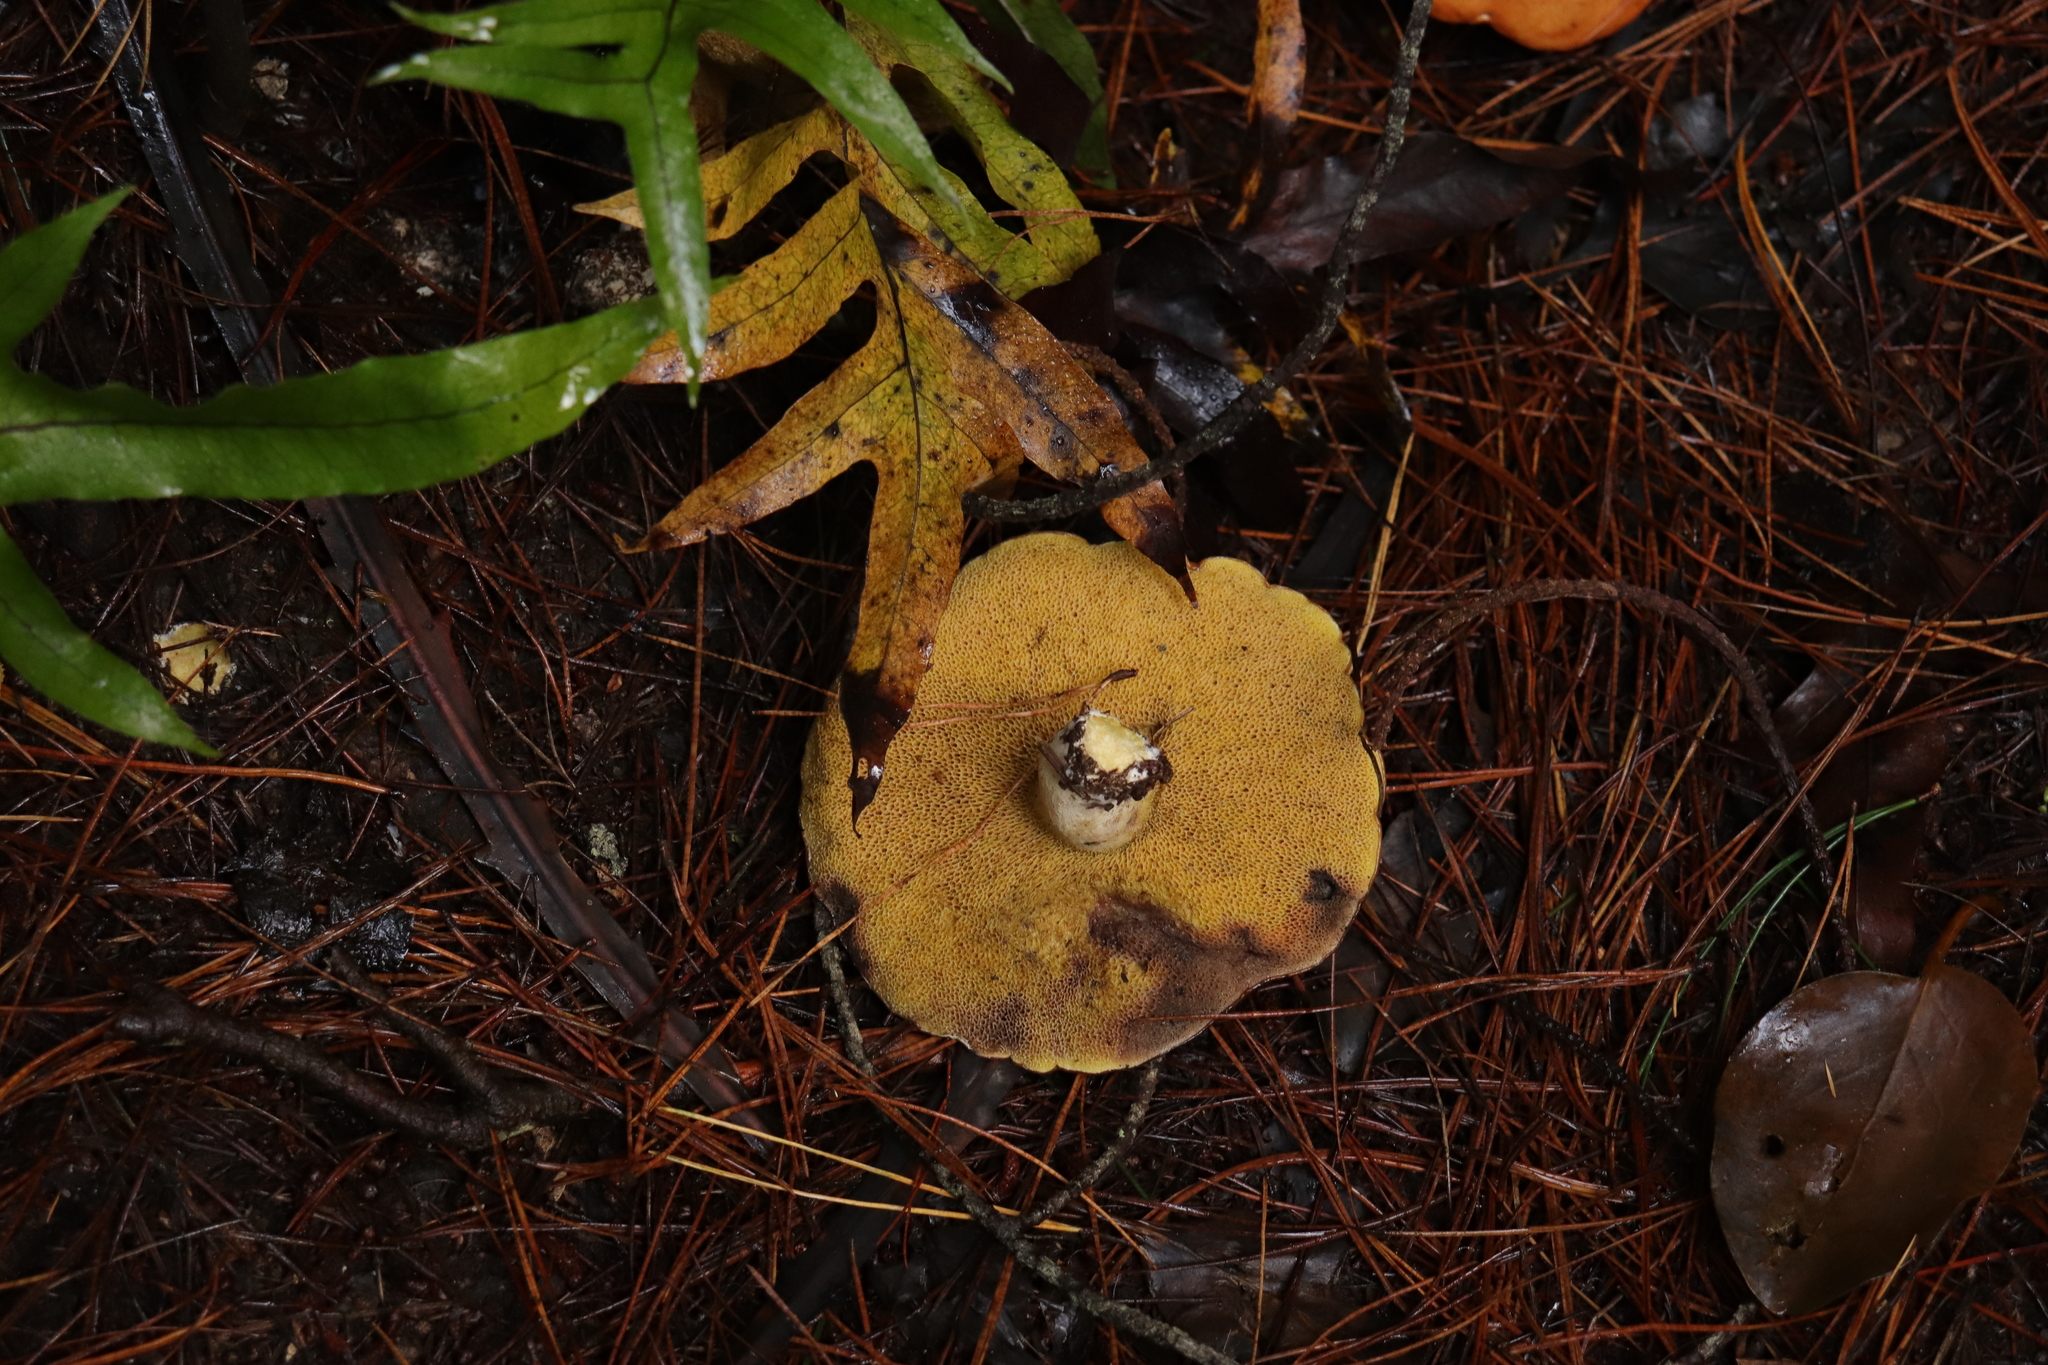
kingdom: Fungi
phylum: Basidiomycota
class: Agaricomycetes
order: Boletales
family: Suillaceae
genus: Suillus
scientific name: Suillus granulatus
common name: Weeping bolete
